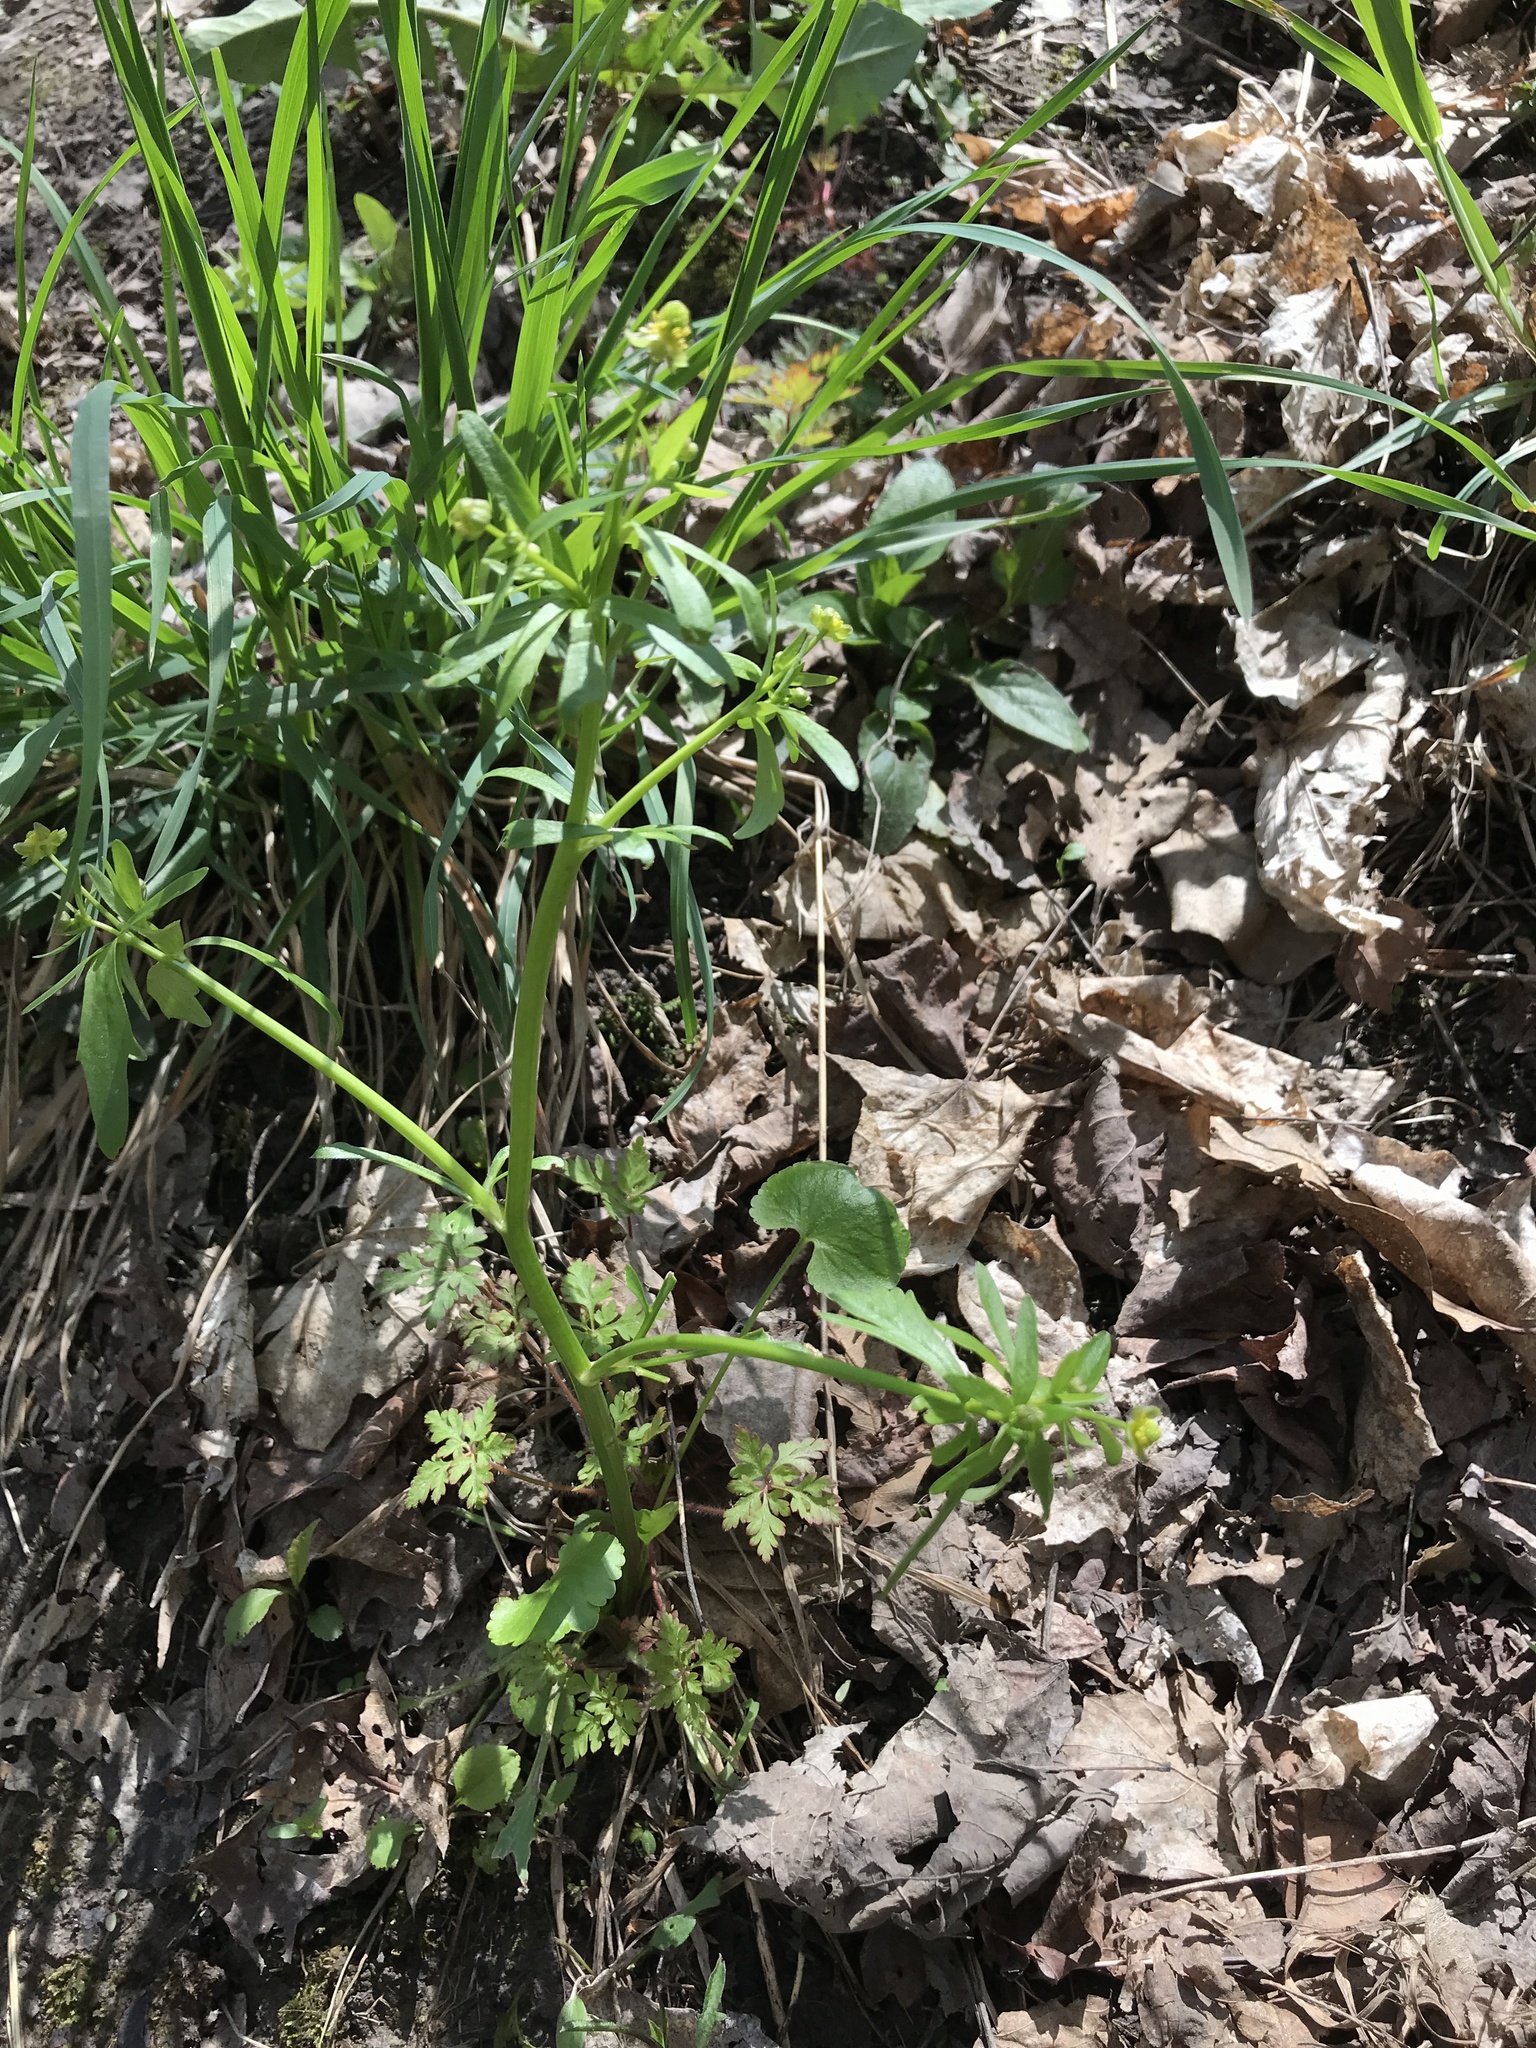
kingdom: Plantae
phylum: Tracheophyta
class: Magnoliopsida
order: Ranunculales
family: Ranunculaceae
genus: Ranunculus
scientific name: Ranunculus abortivus
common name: Early wood buttercup
